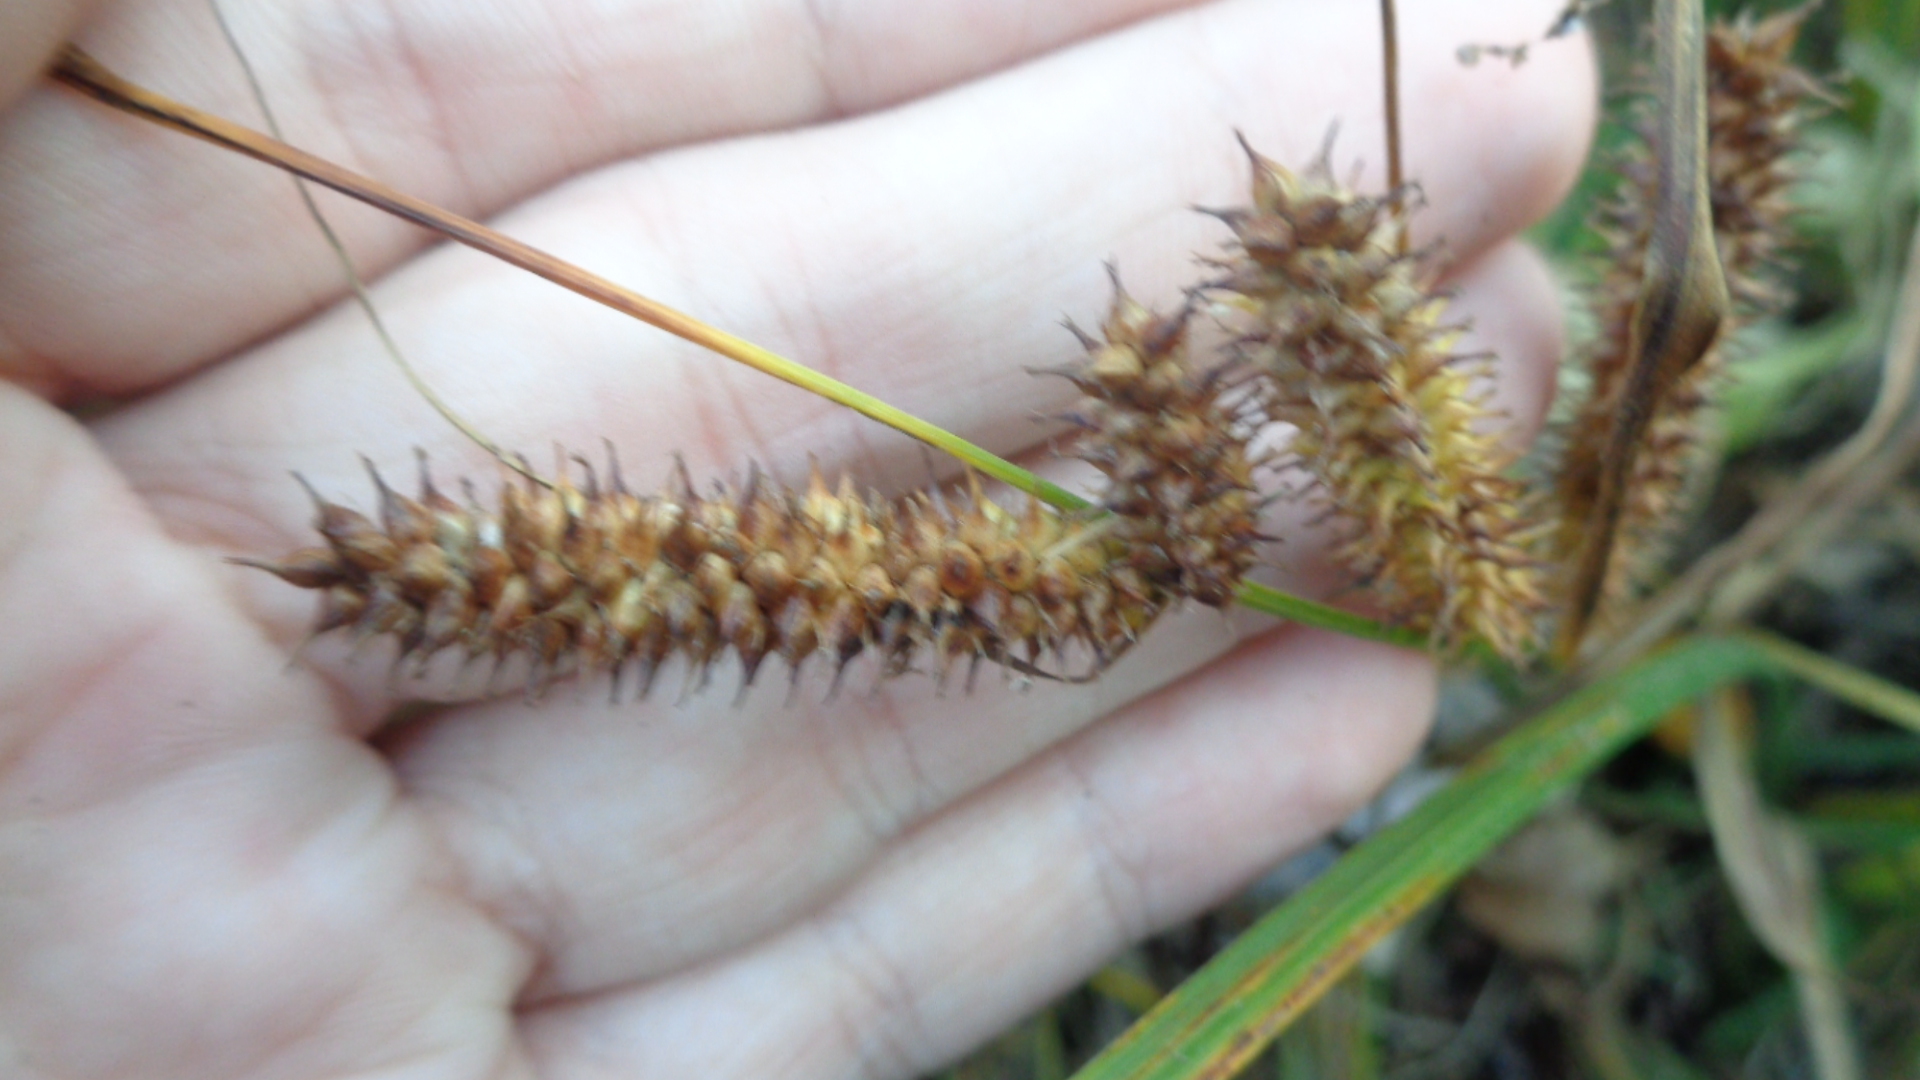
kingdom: Plantae
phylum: Tracheophyta
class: Liliopsida
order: Poales
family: Cyperaceae
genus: Carex
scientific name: Carex rostrata
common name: Bottle sedge
